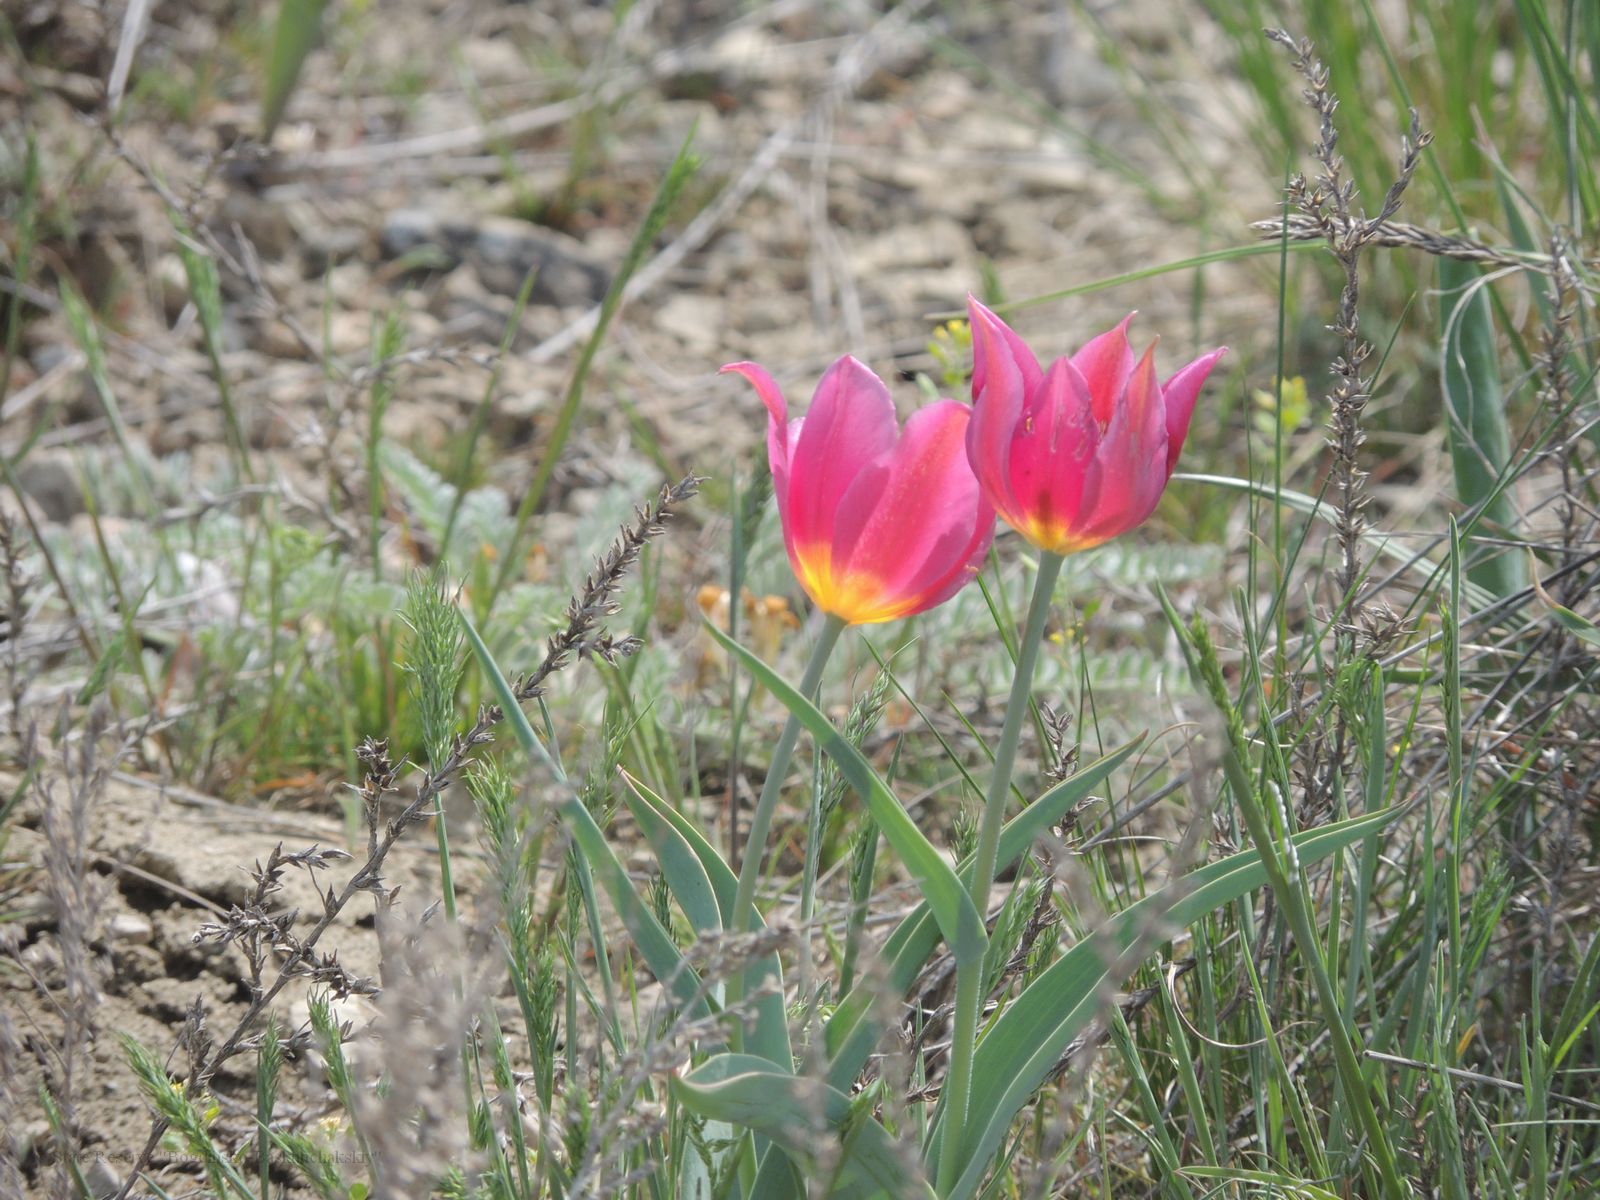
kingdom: Plantae
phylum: Tracheophyta
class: Liliopsida
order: Liliales
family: Liliaceae
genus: Tulipa
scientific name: Tulipa suaveolens
